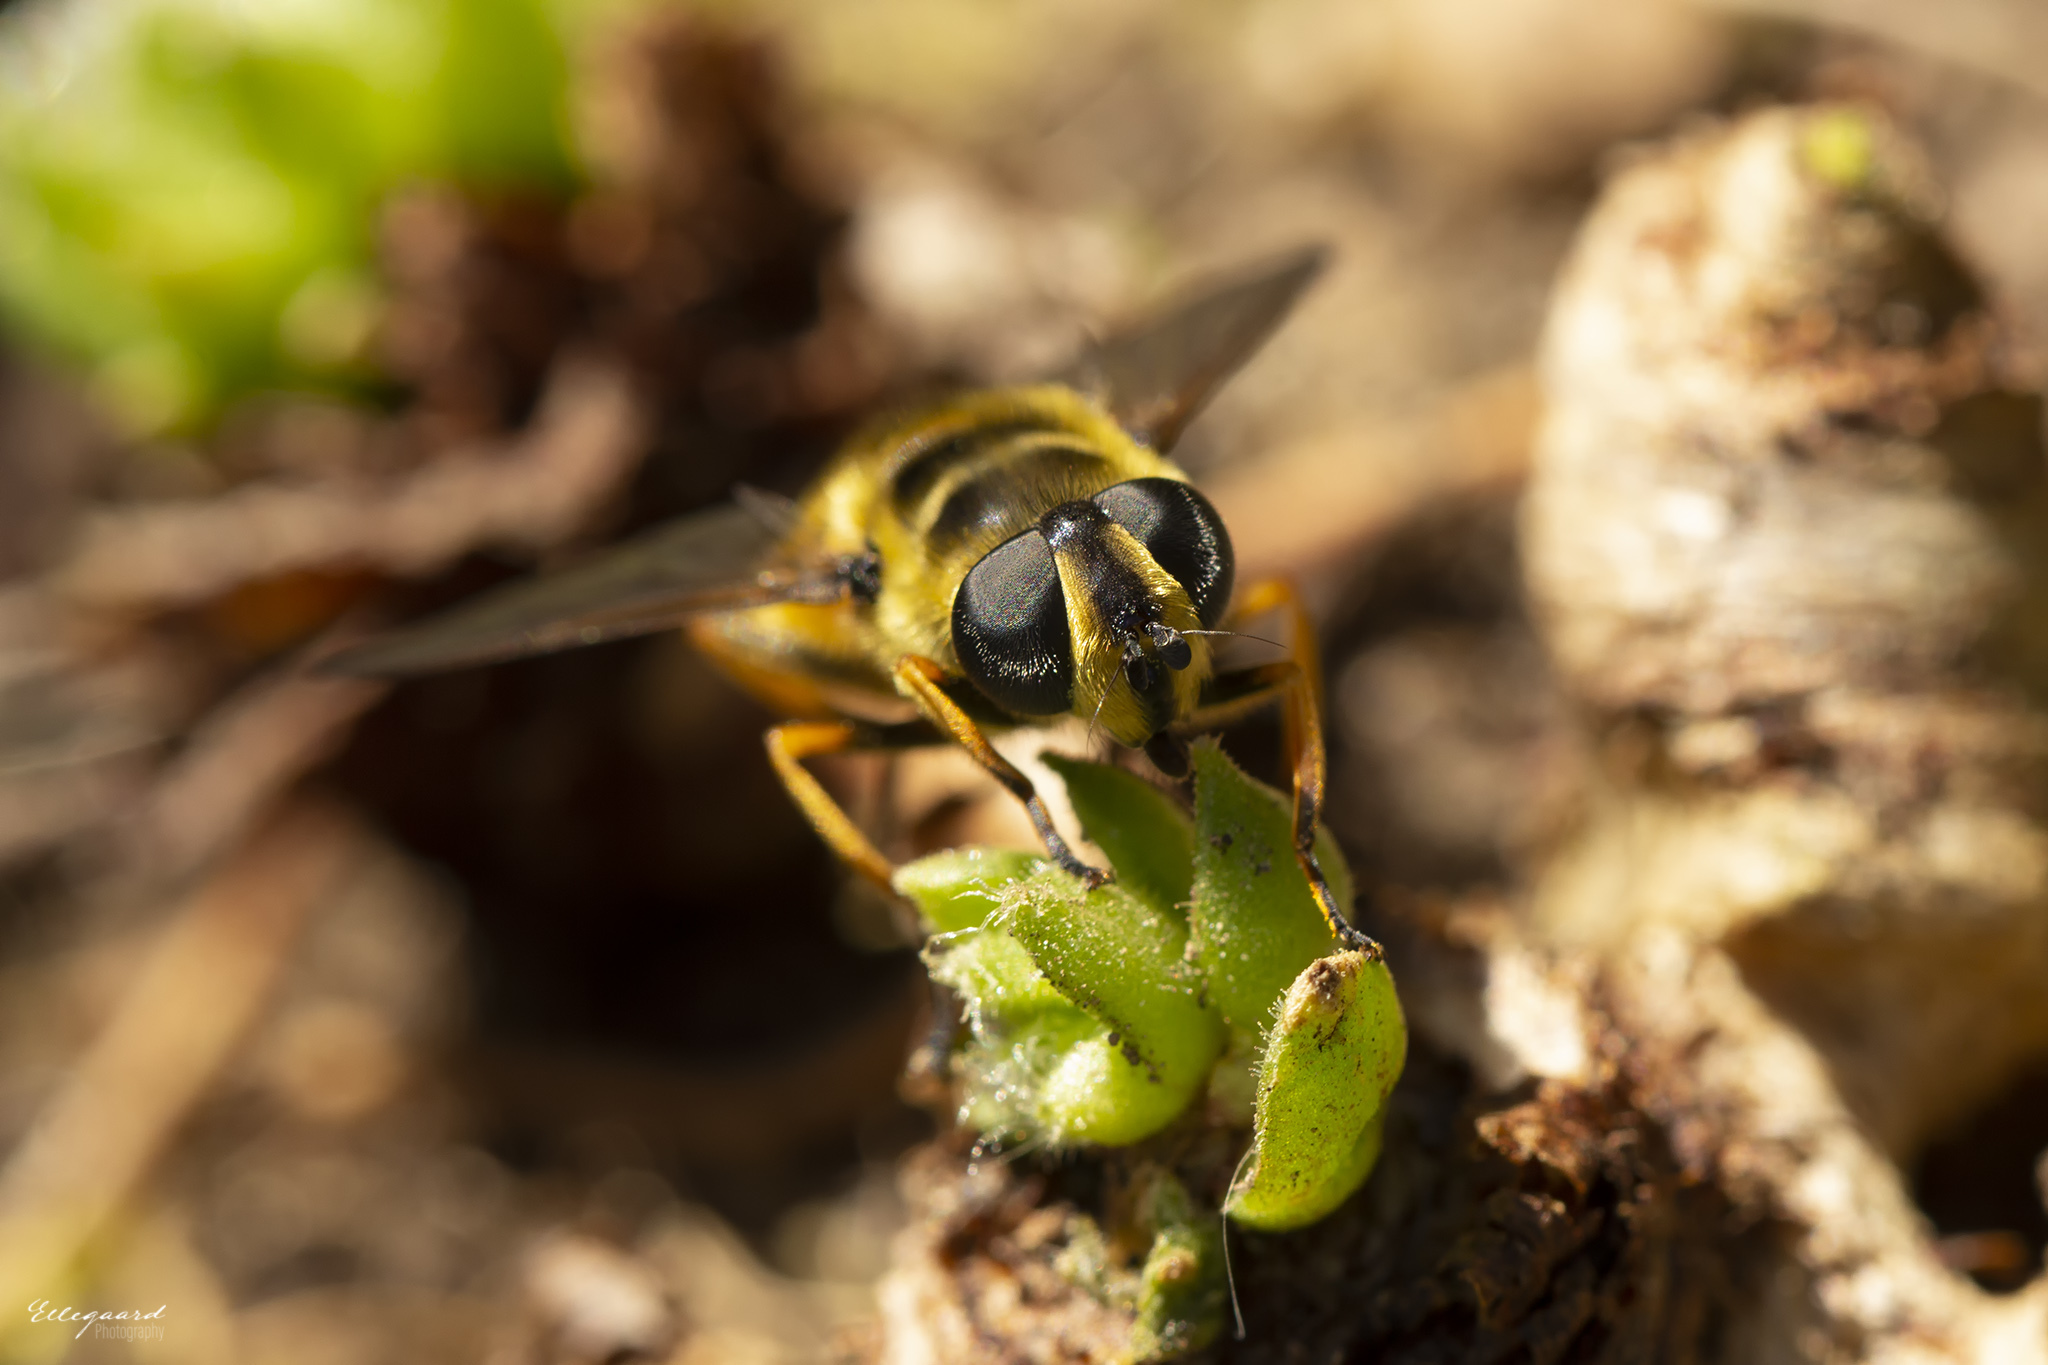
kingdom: Animalia
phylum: Arthropoda
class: Insecta
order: Diptera
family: Syrphidae
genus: Myathropa
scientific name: Myathropa florea
